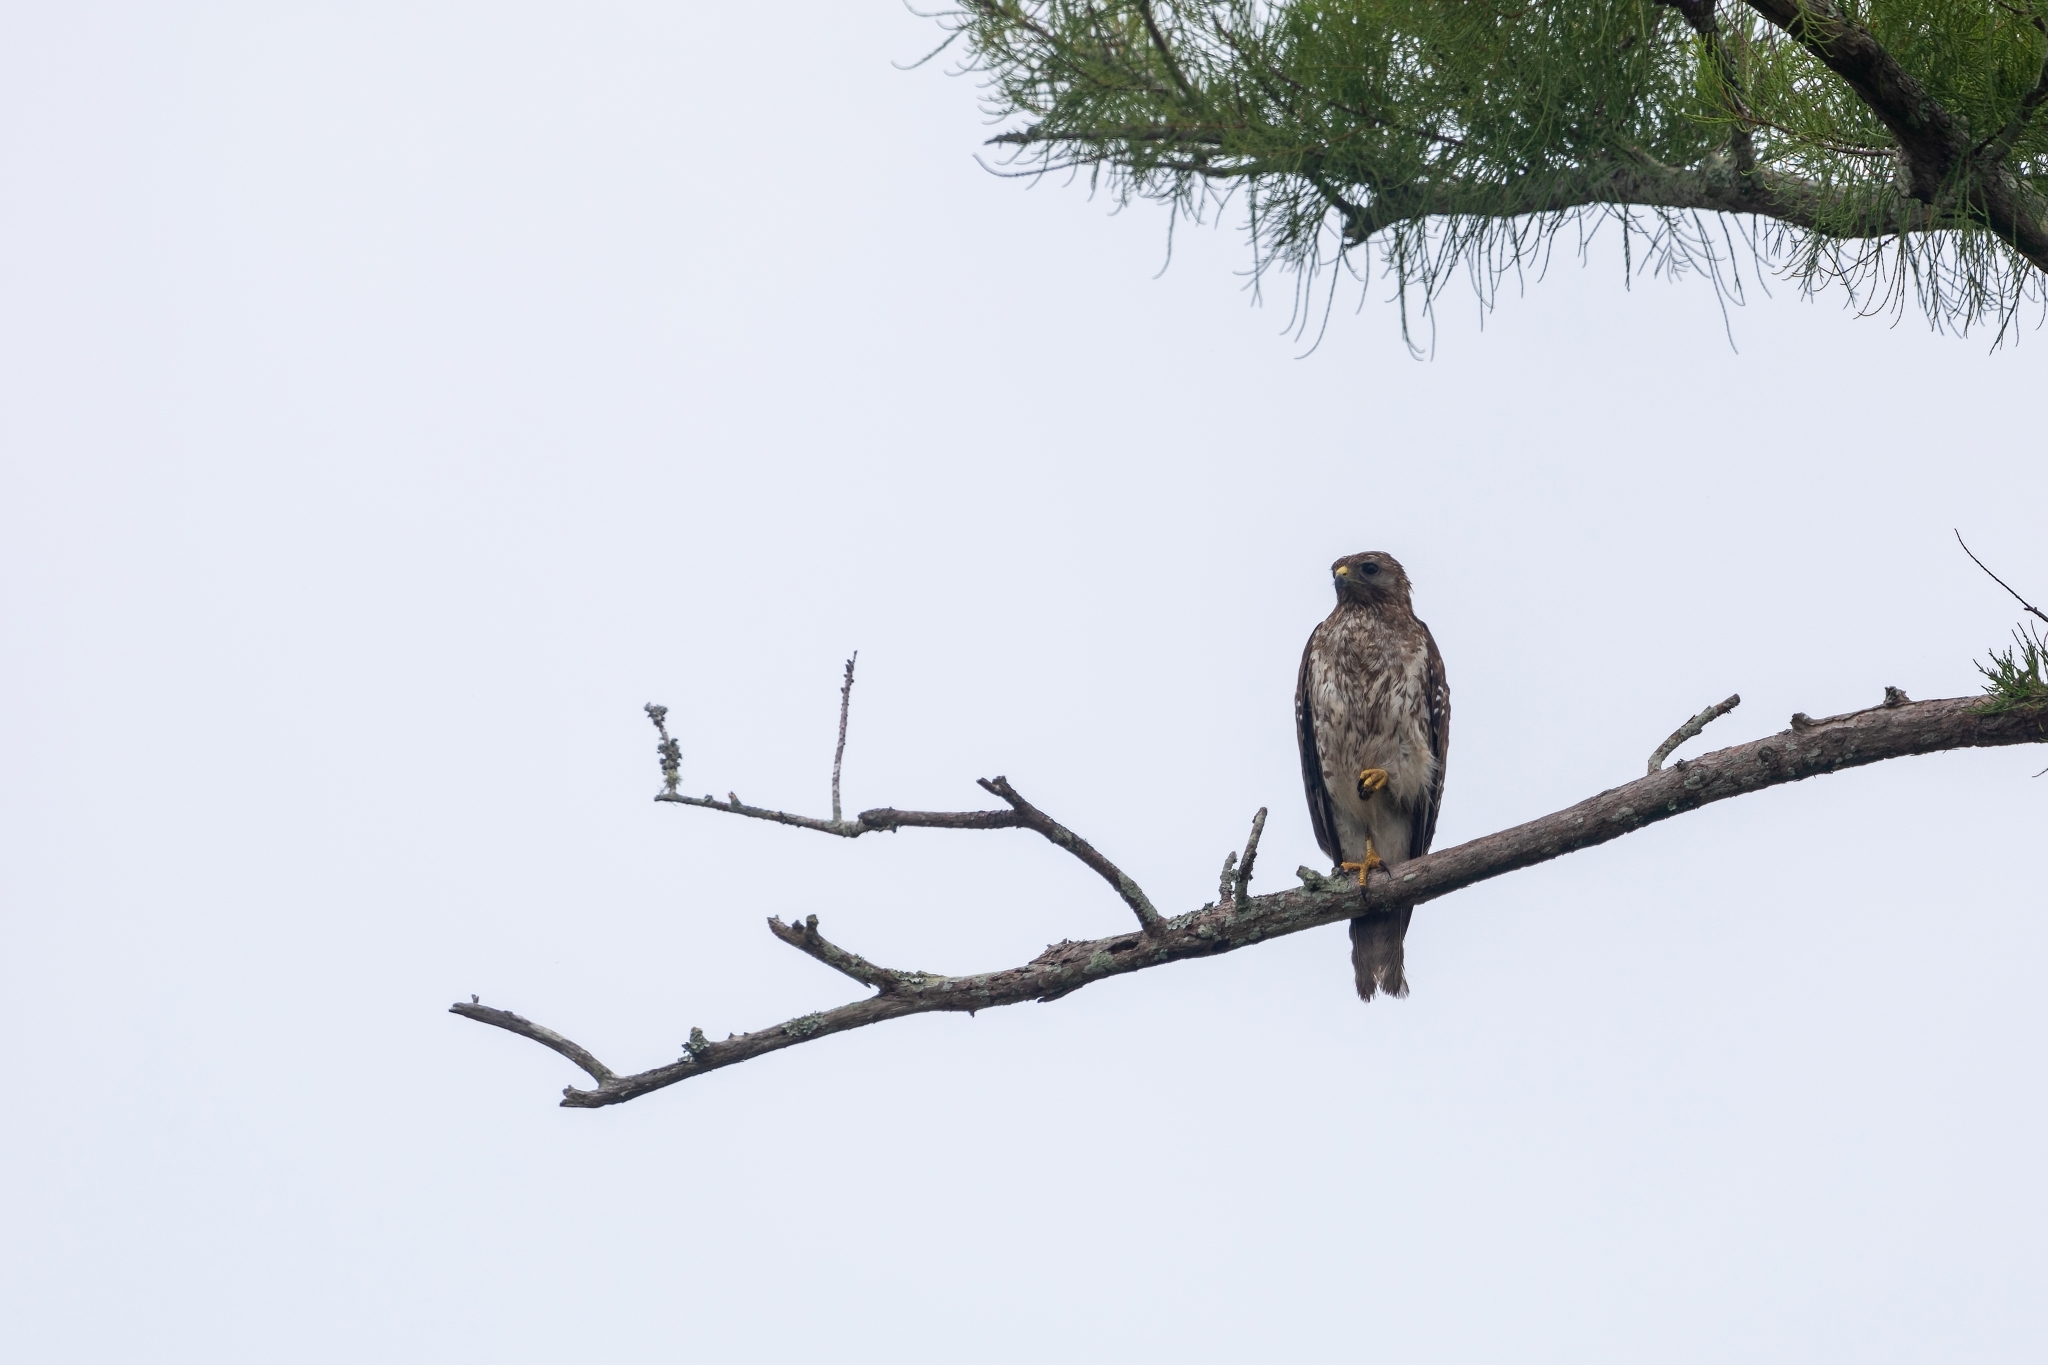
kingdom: Animalia
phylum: Chordata
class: Aves
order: Accipitriformes
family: Accipitridae
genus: Buteo
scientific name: Buteo lineatus
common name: Red-shouldered hawk
